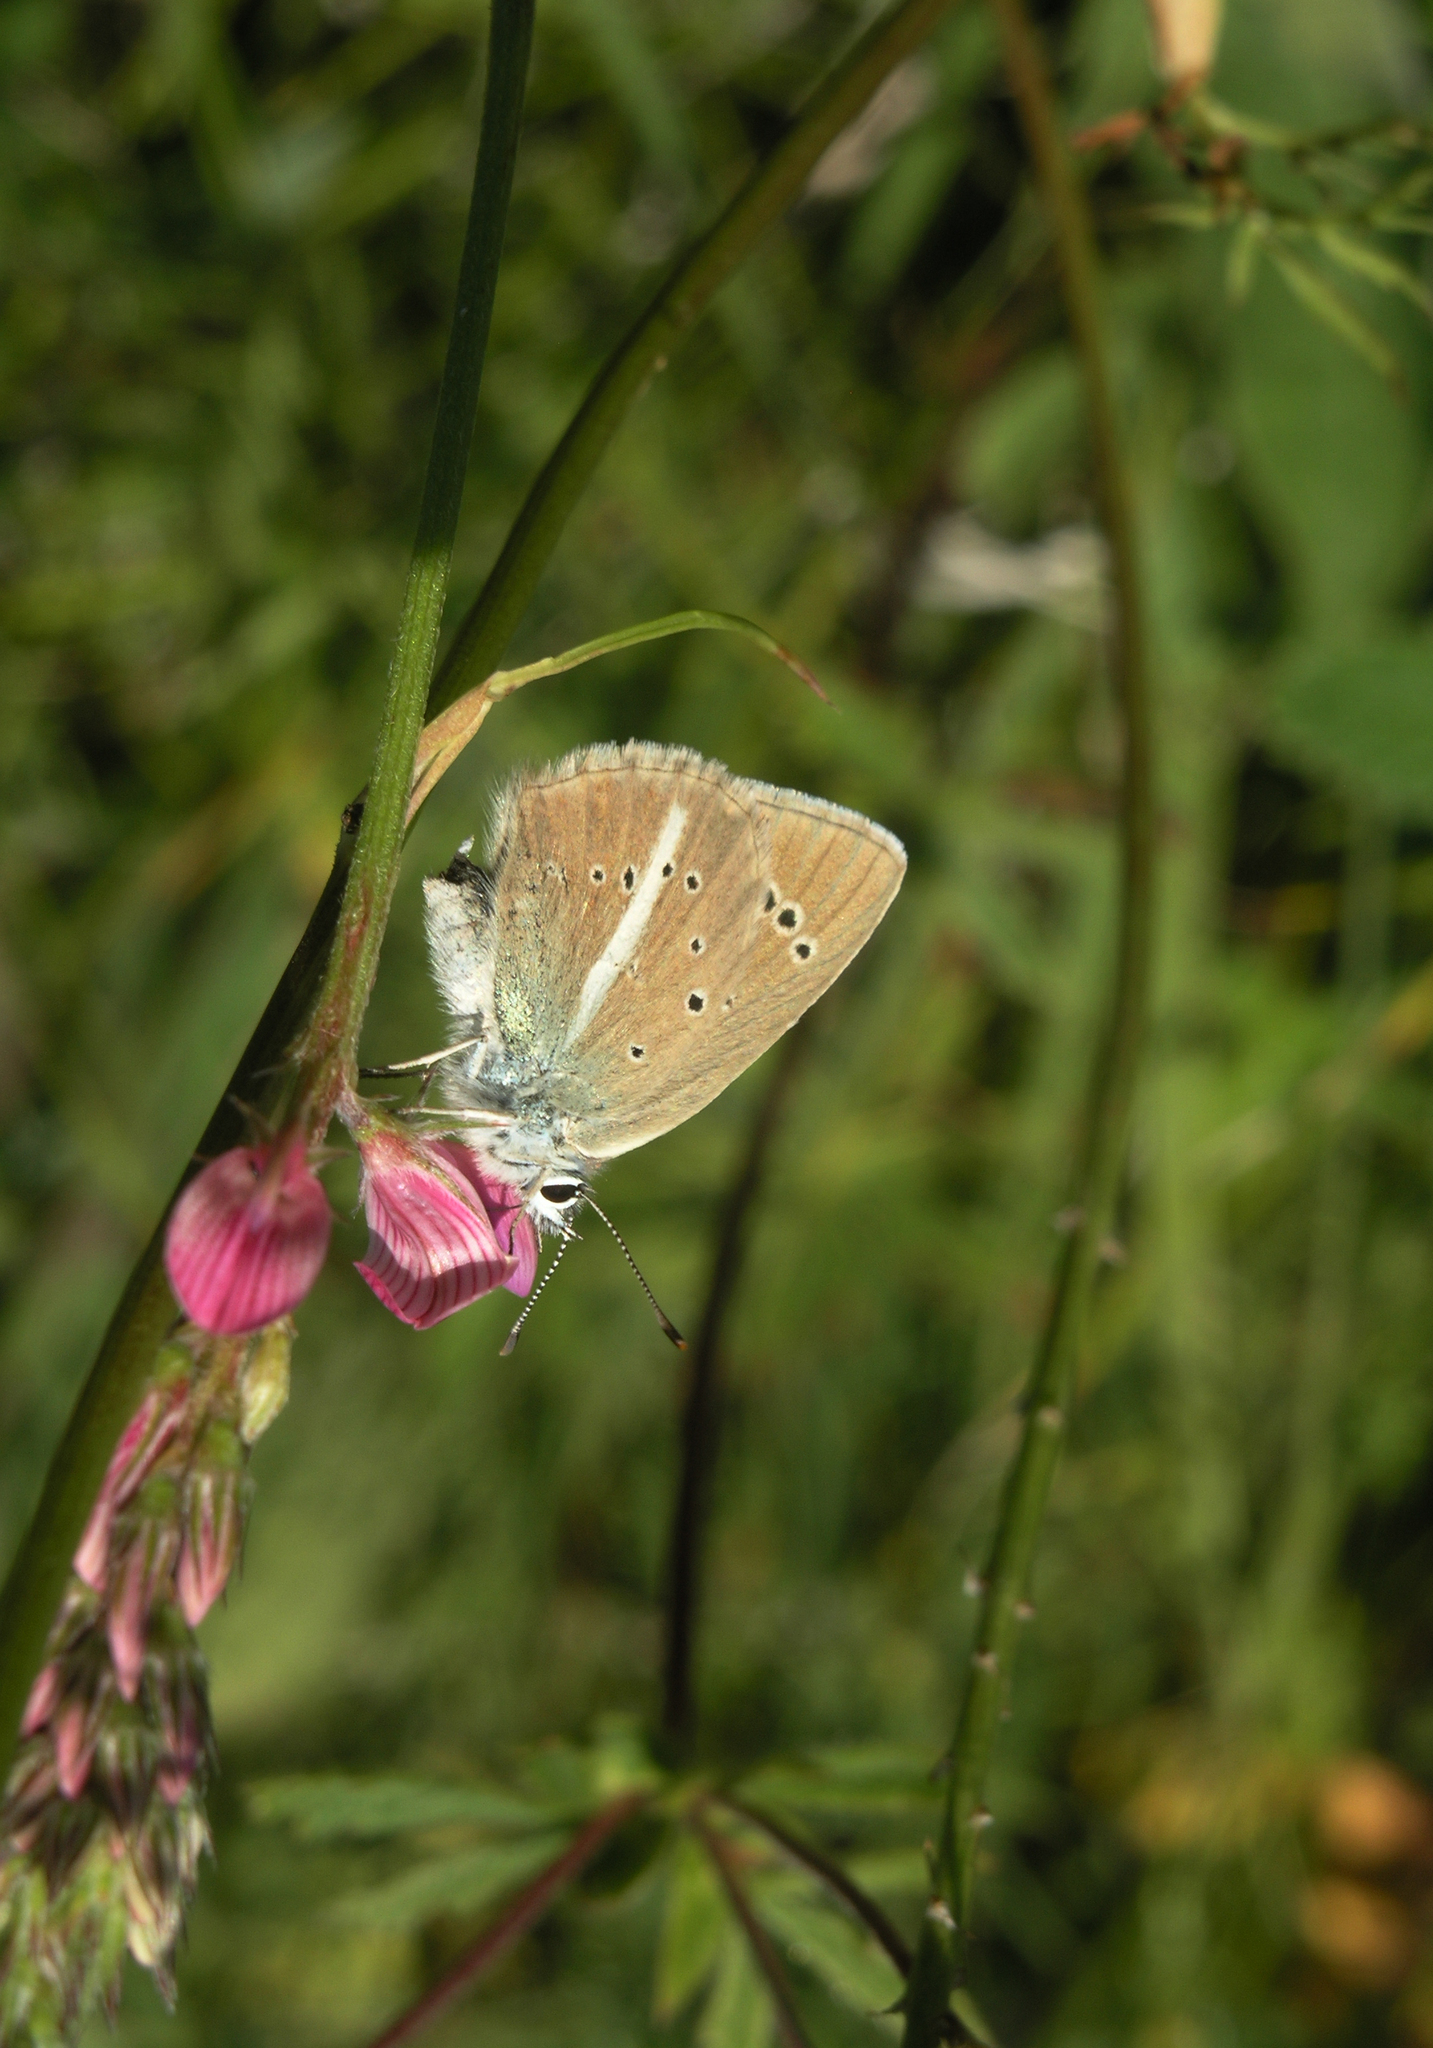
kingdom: Plantae
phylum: Tracheophyta
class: Magnoliopsida
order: Fabales
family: Fabaceae
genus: Onobrychis
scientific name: Onobrychis arenaria
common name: Sand esparcet
